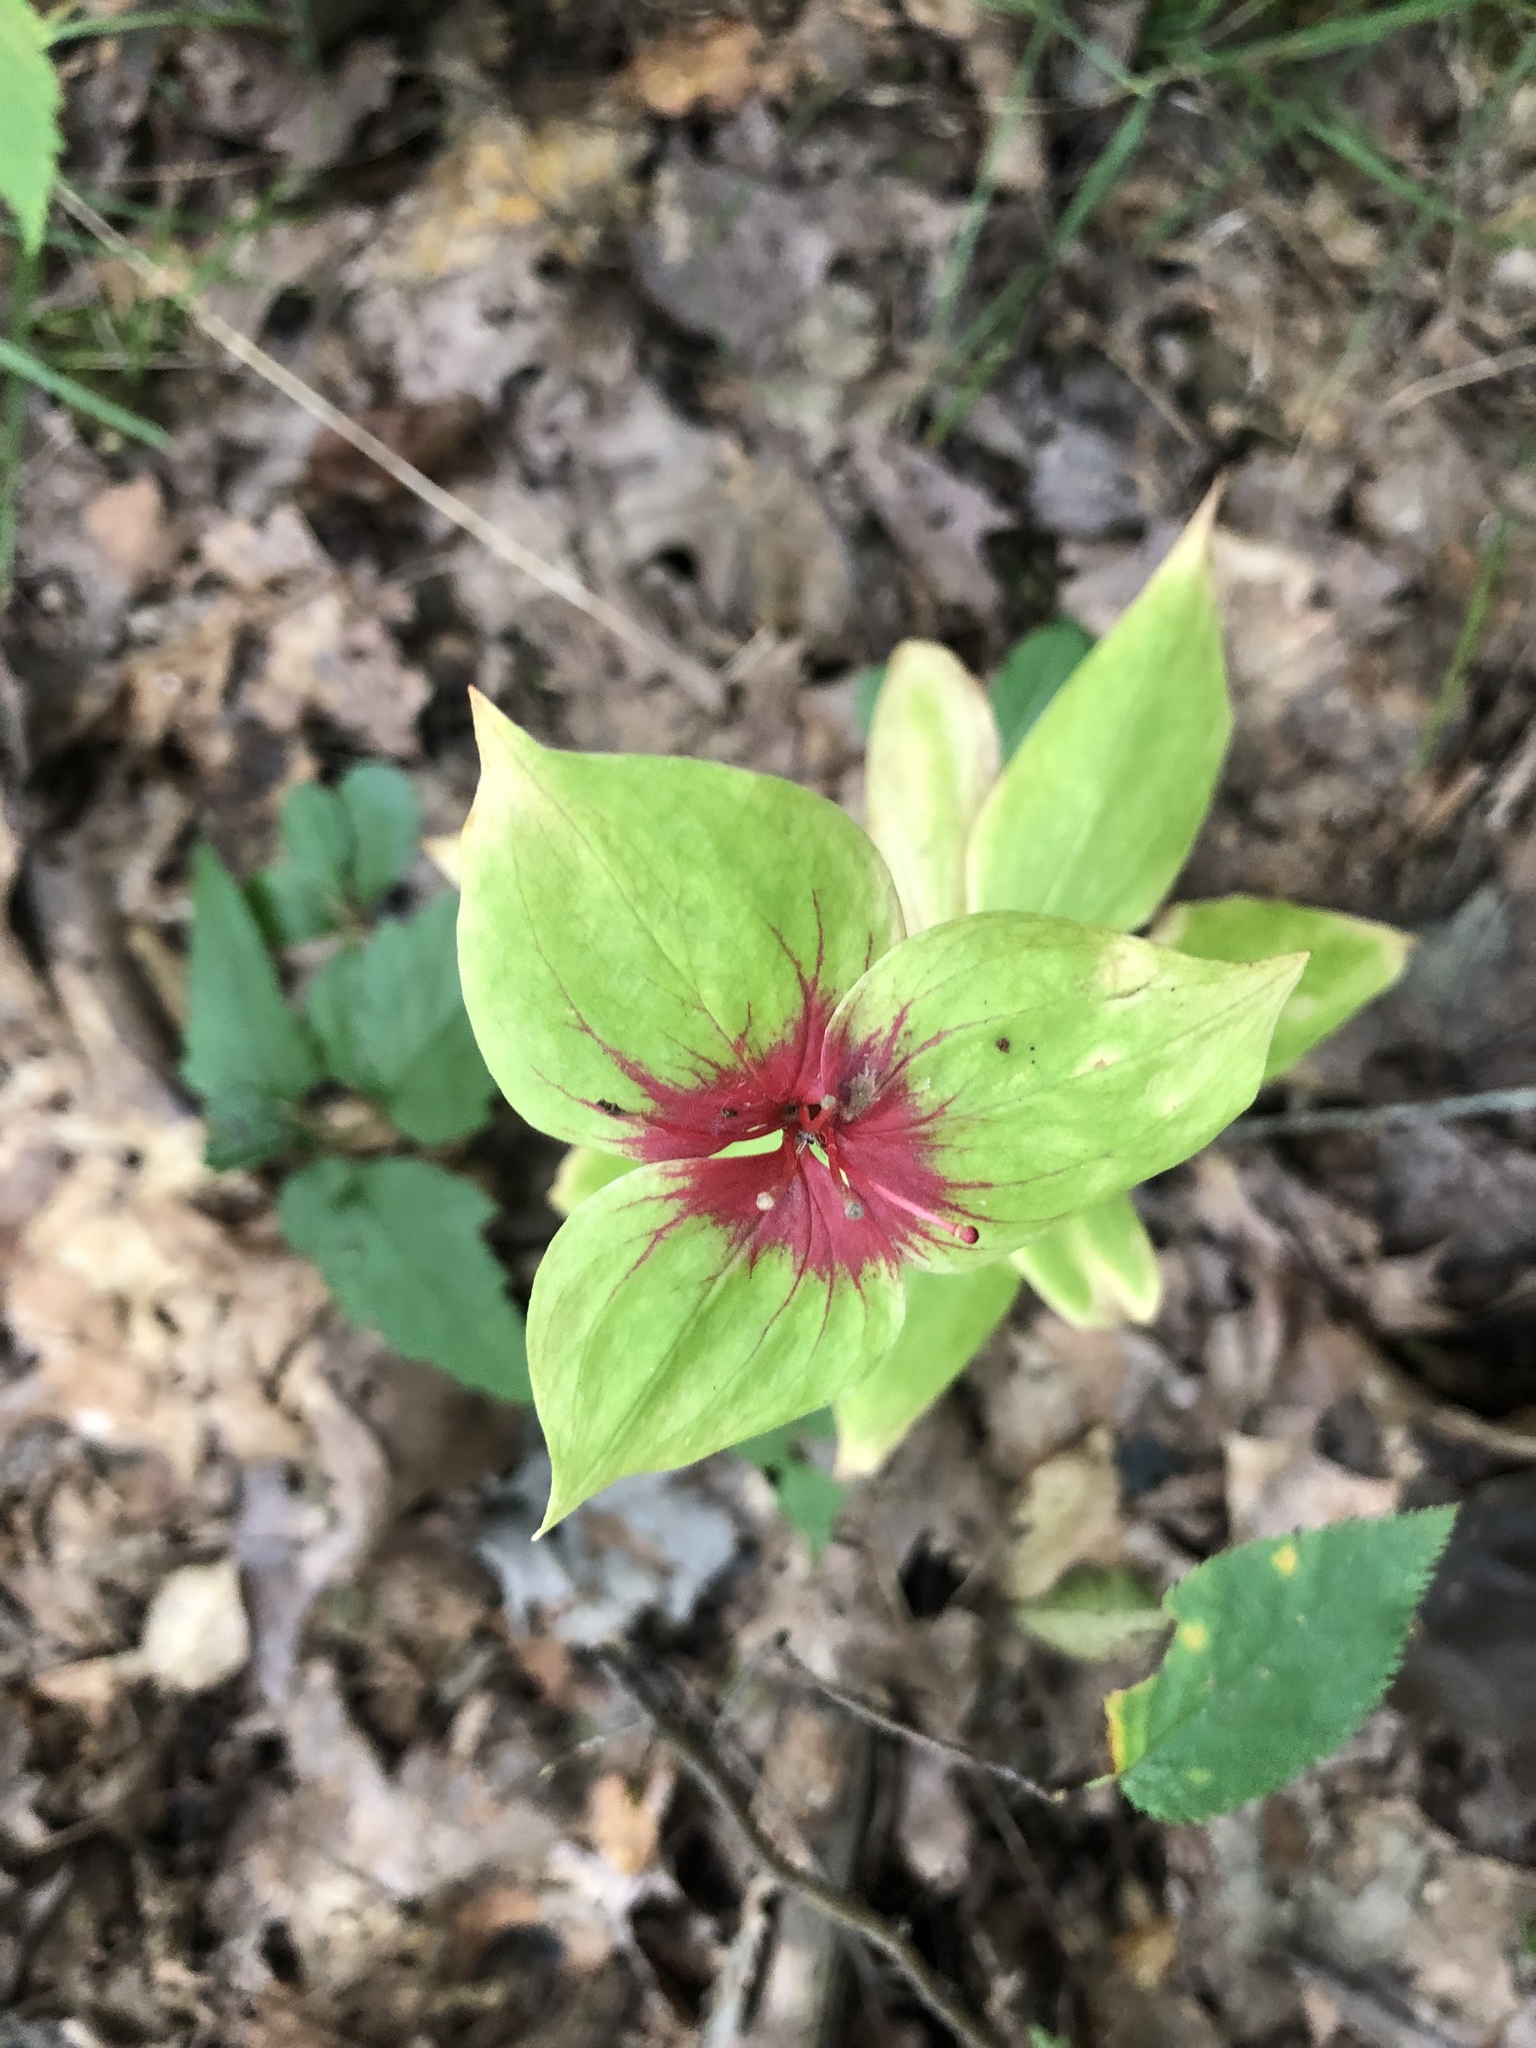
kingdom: Plantae
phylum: Tracheophyta
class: Liliopsida
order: Liliales
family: Liliaceae
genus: Medeola
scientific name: Medeola virginiana
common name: Indian cucumber-root
